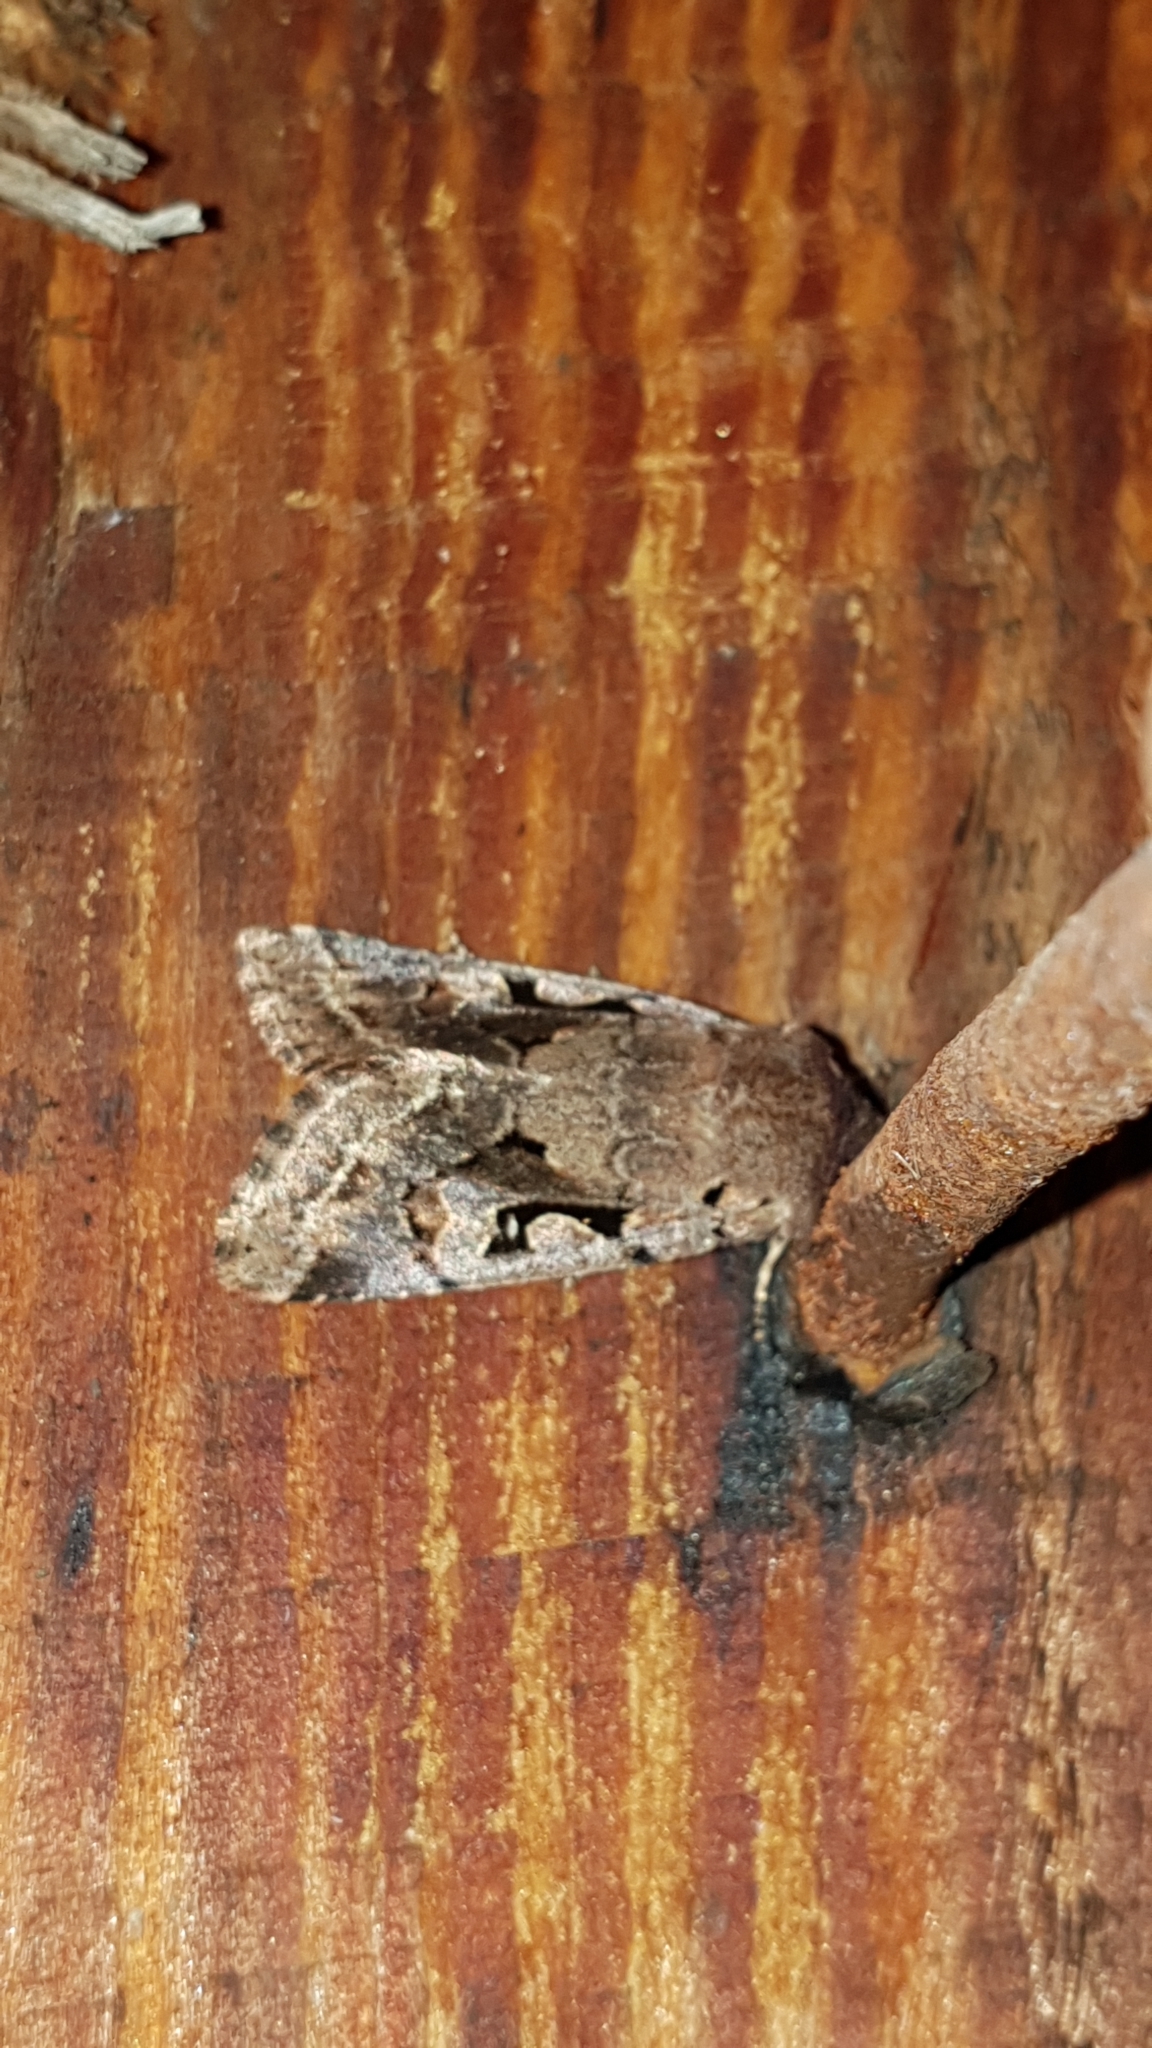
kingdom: Animalia
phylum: Arthropoda
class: Insecta
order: Lepidoptera
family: Noctuidae
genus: Orthosia
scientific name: Orthosia gothica
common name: Hebrew character
